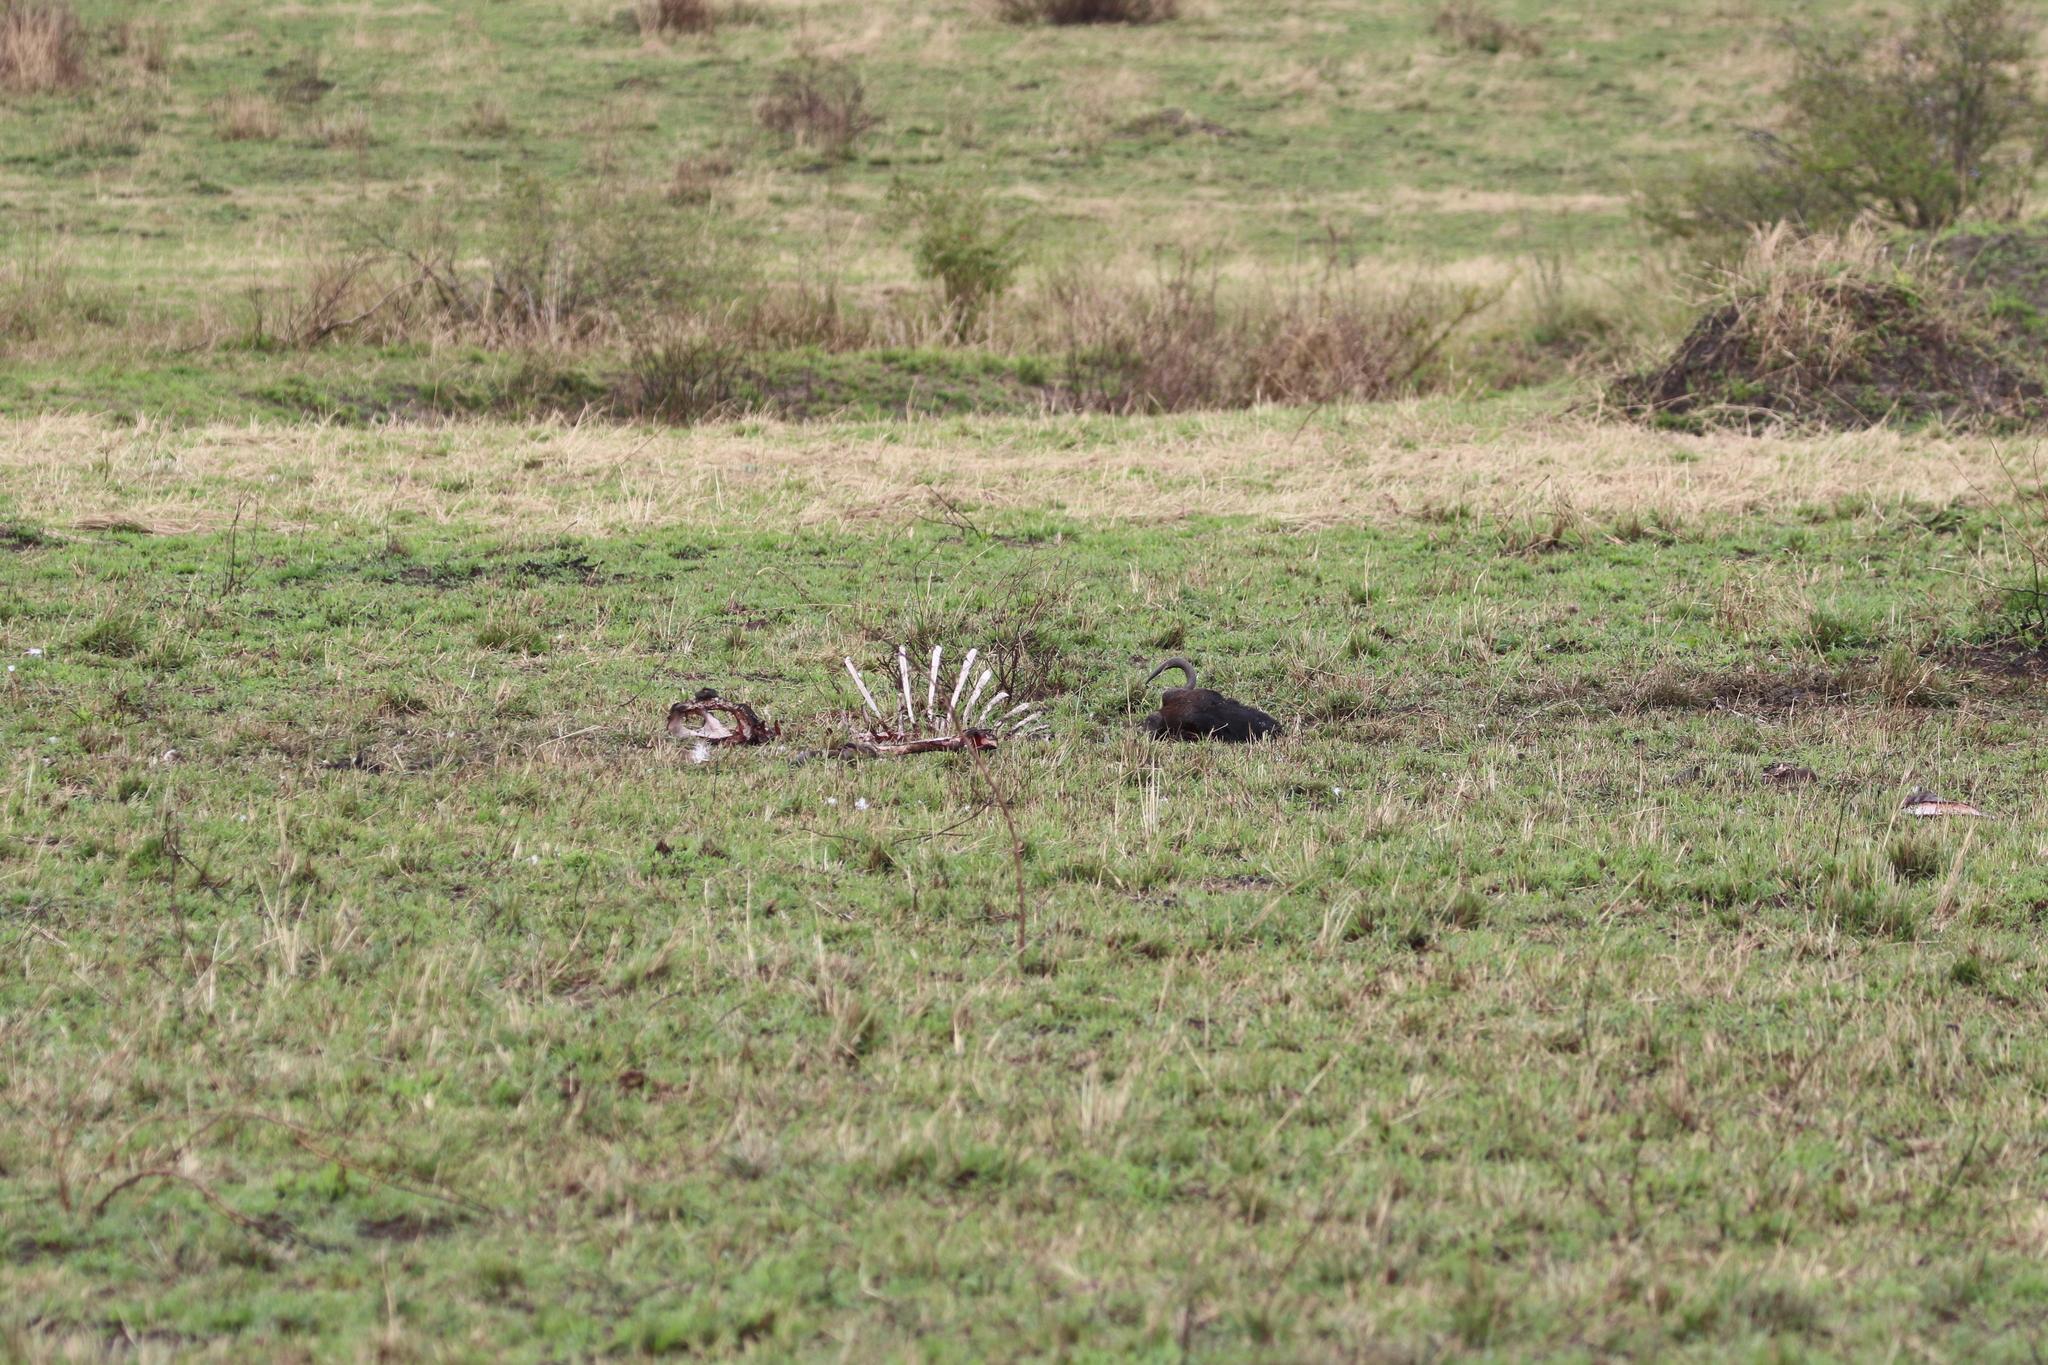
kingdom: Animalia
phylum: Chordata
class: Mammalia
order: Artiodactyla
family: Bovidae
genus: Connochaetes
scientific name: Connochaetes taurinus
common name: Blue wildebeest
